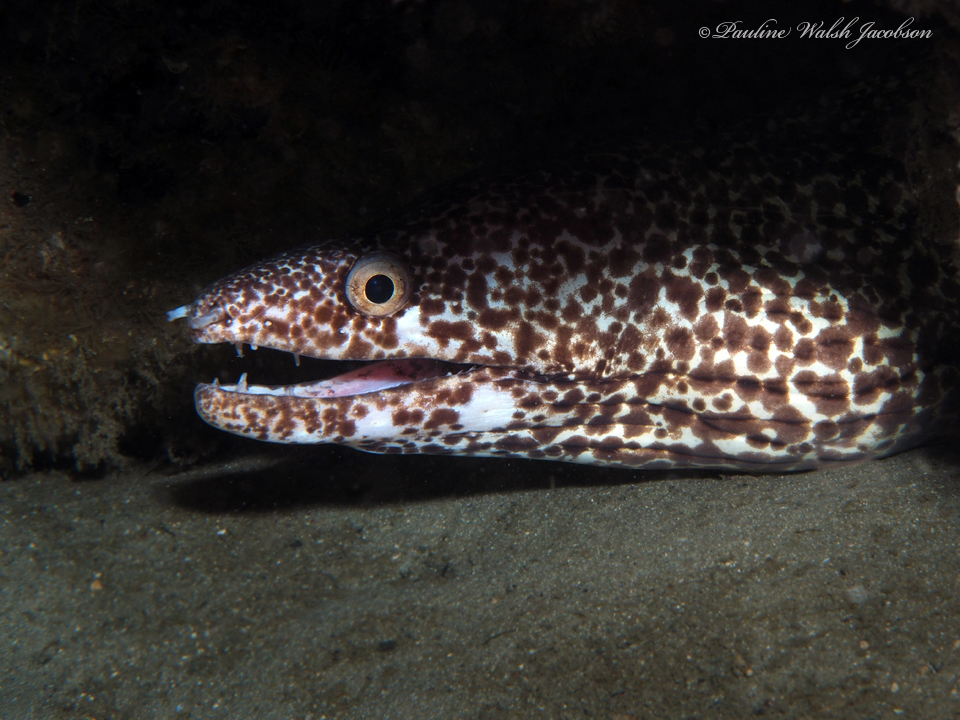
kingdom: Animalia
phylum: Chordata
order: Anguilliformes
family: Muraenidae
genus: Gymnothorax
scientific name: Gymnothorax moringa
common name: Spotted moray
